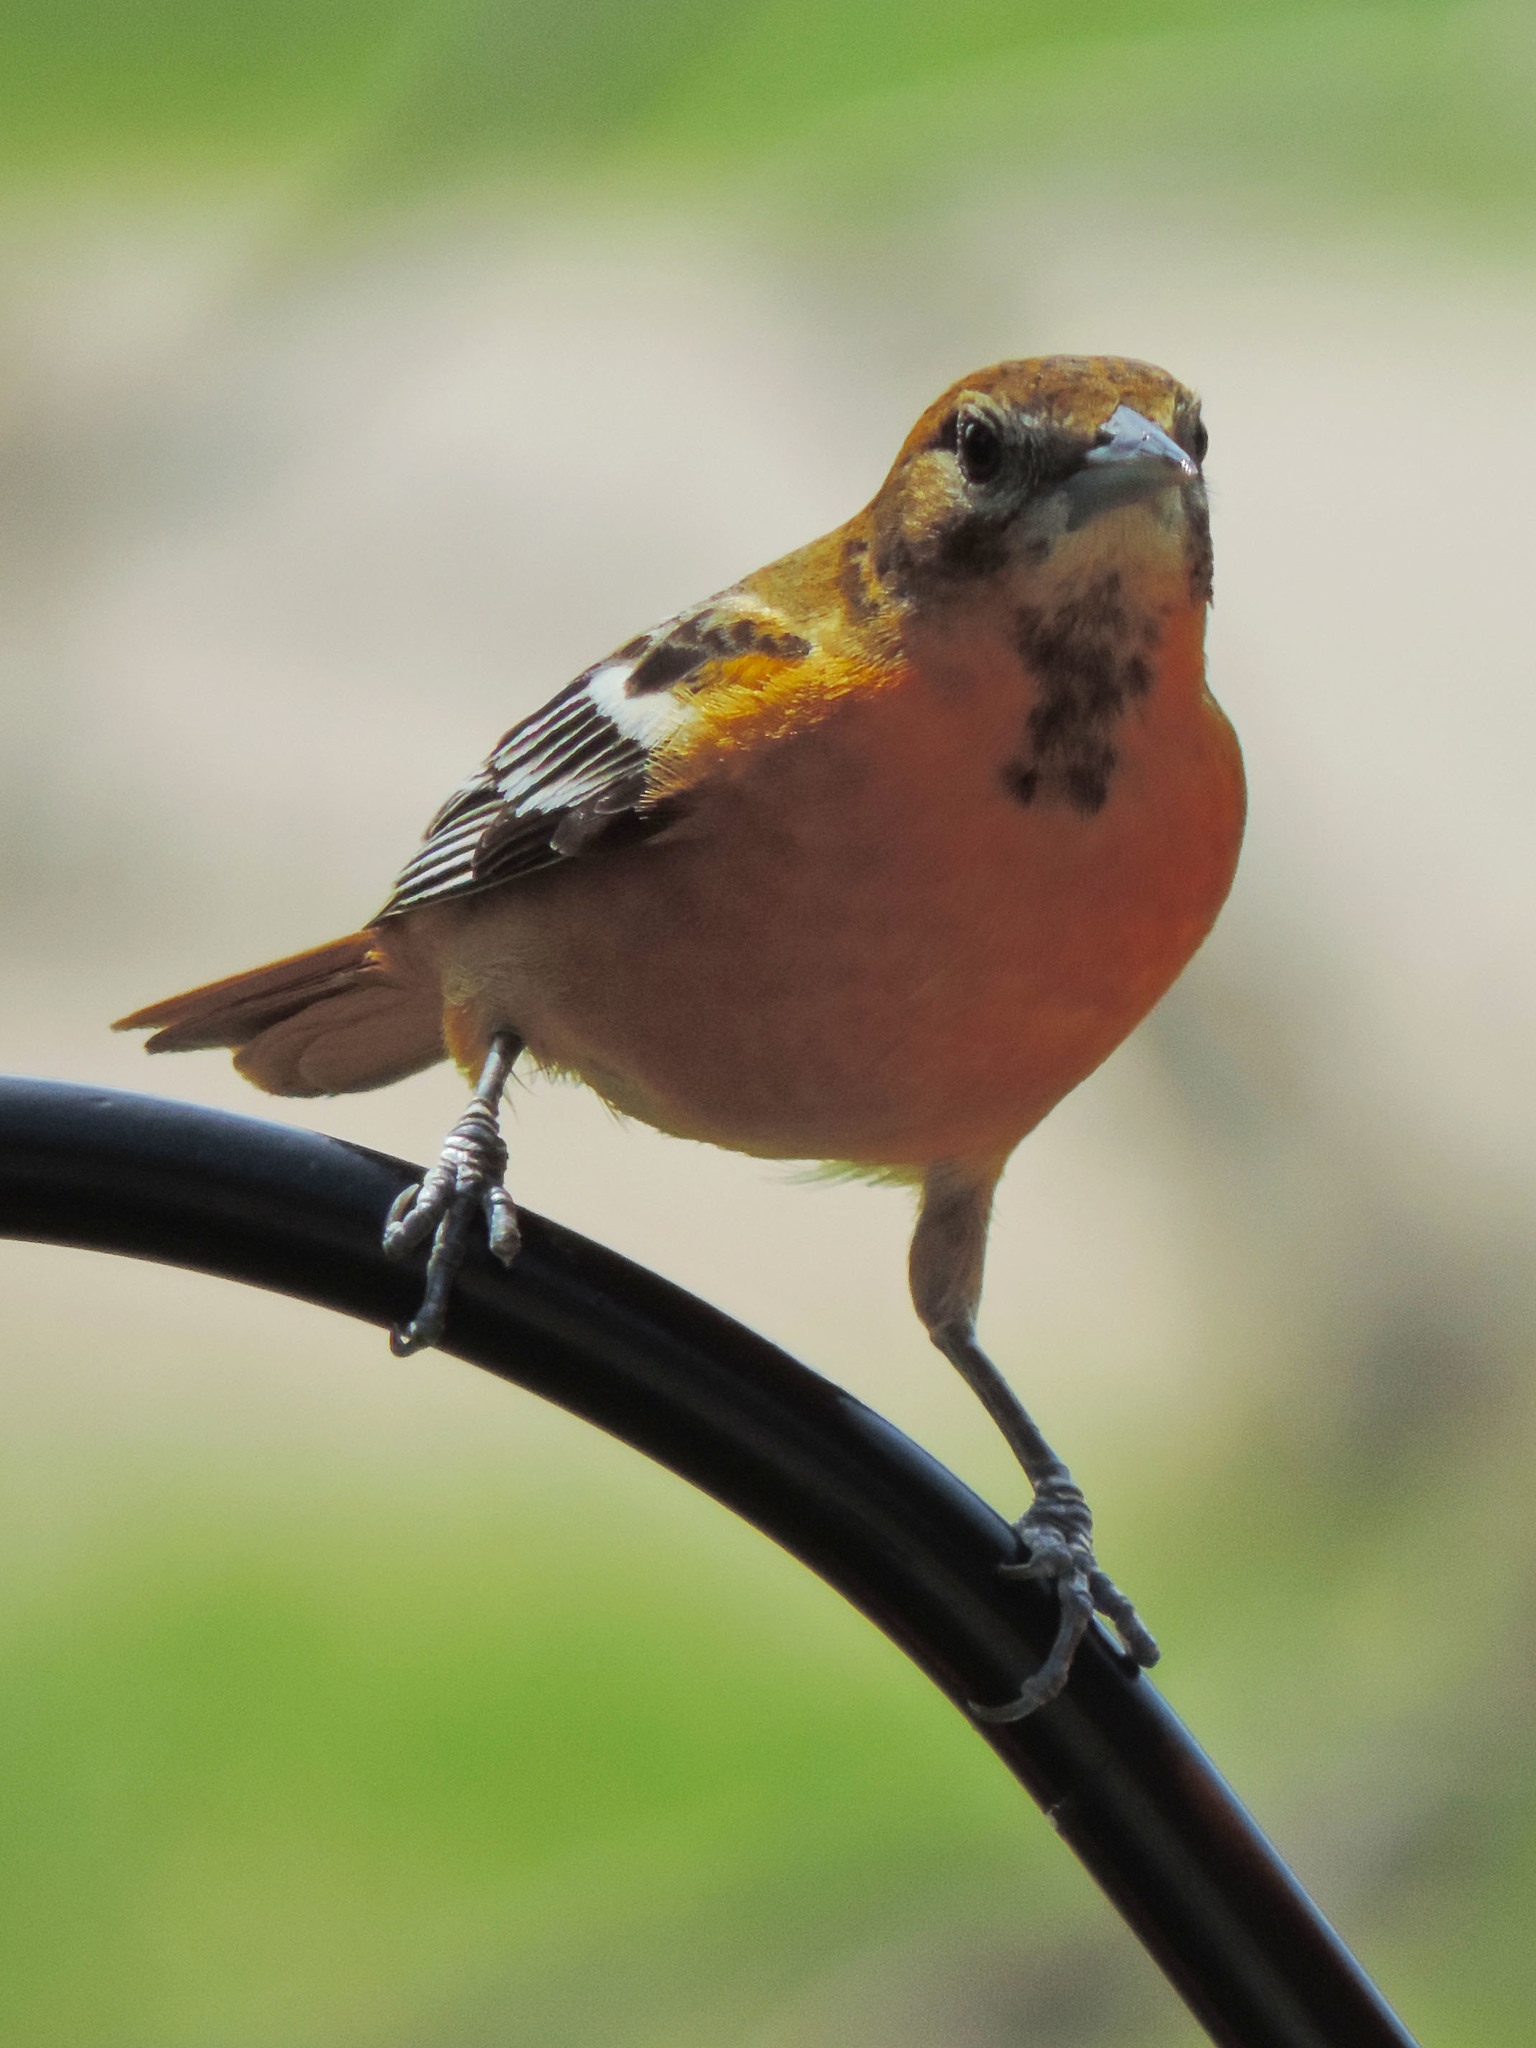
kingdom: Animalia
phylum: Chordata
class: Aves
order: Passeriformes
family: Icteridae
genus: Icterus
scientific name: Icterus galbula
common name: Baltimore oriole
